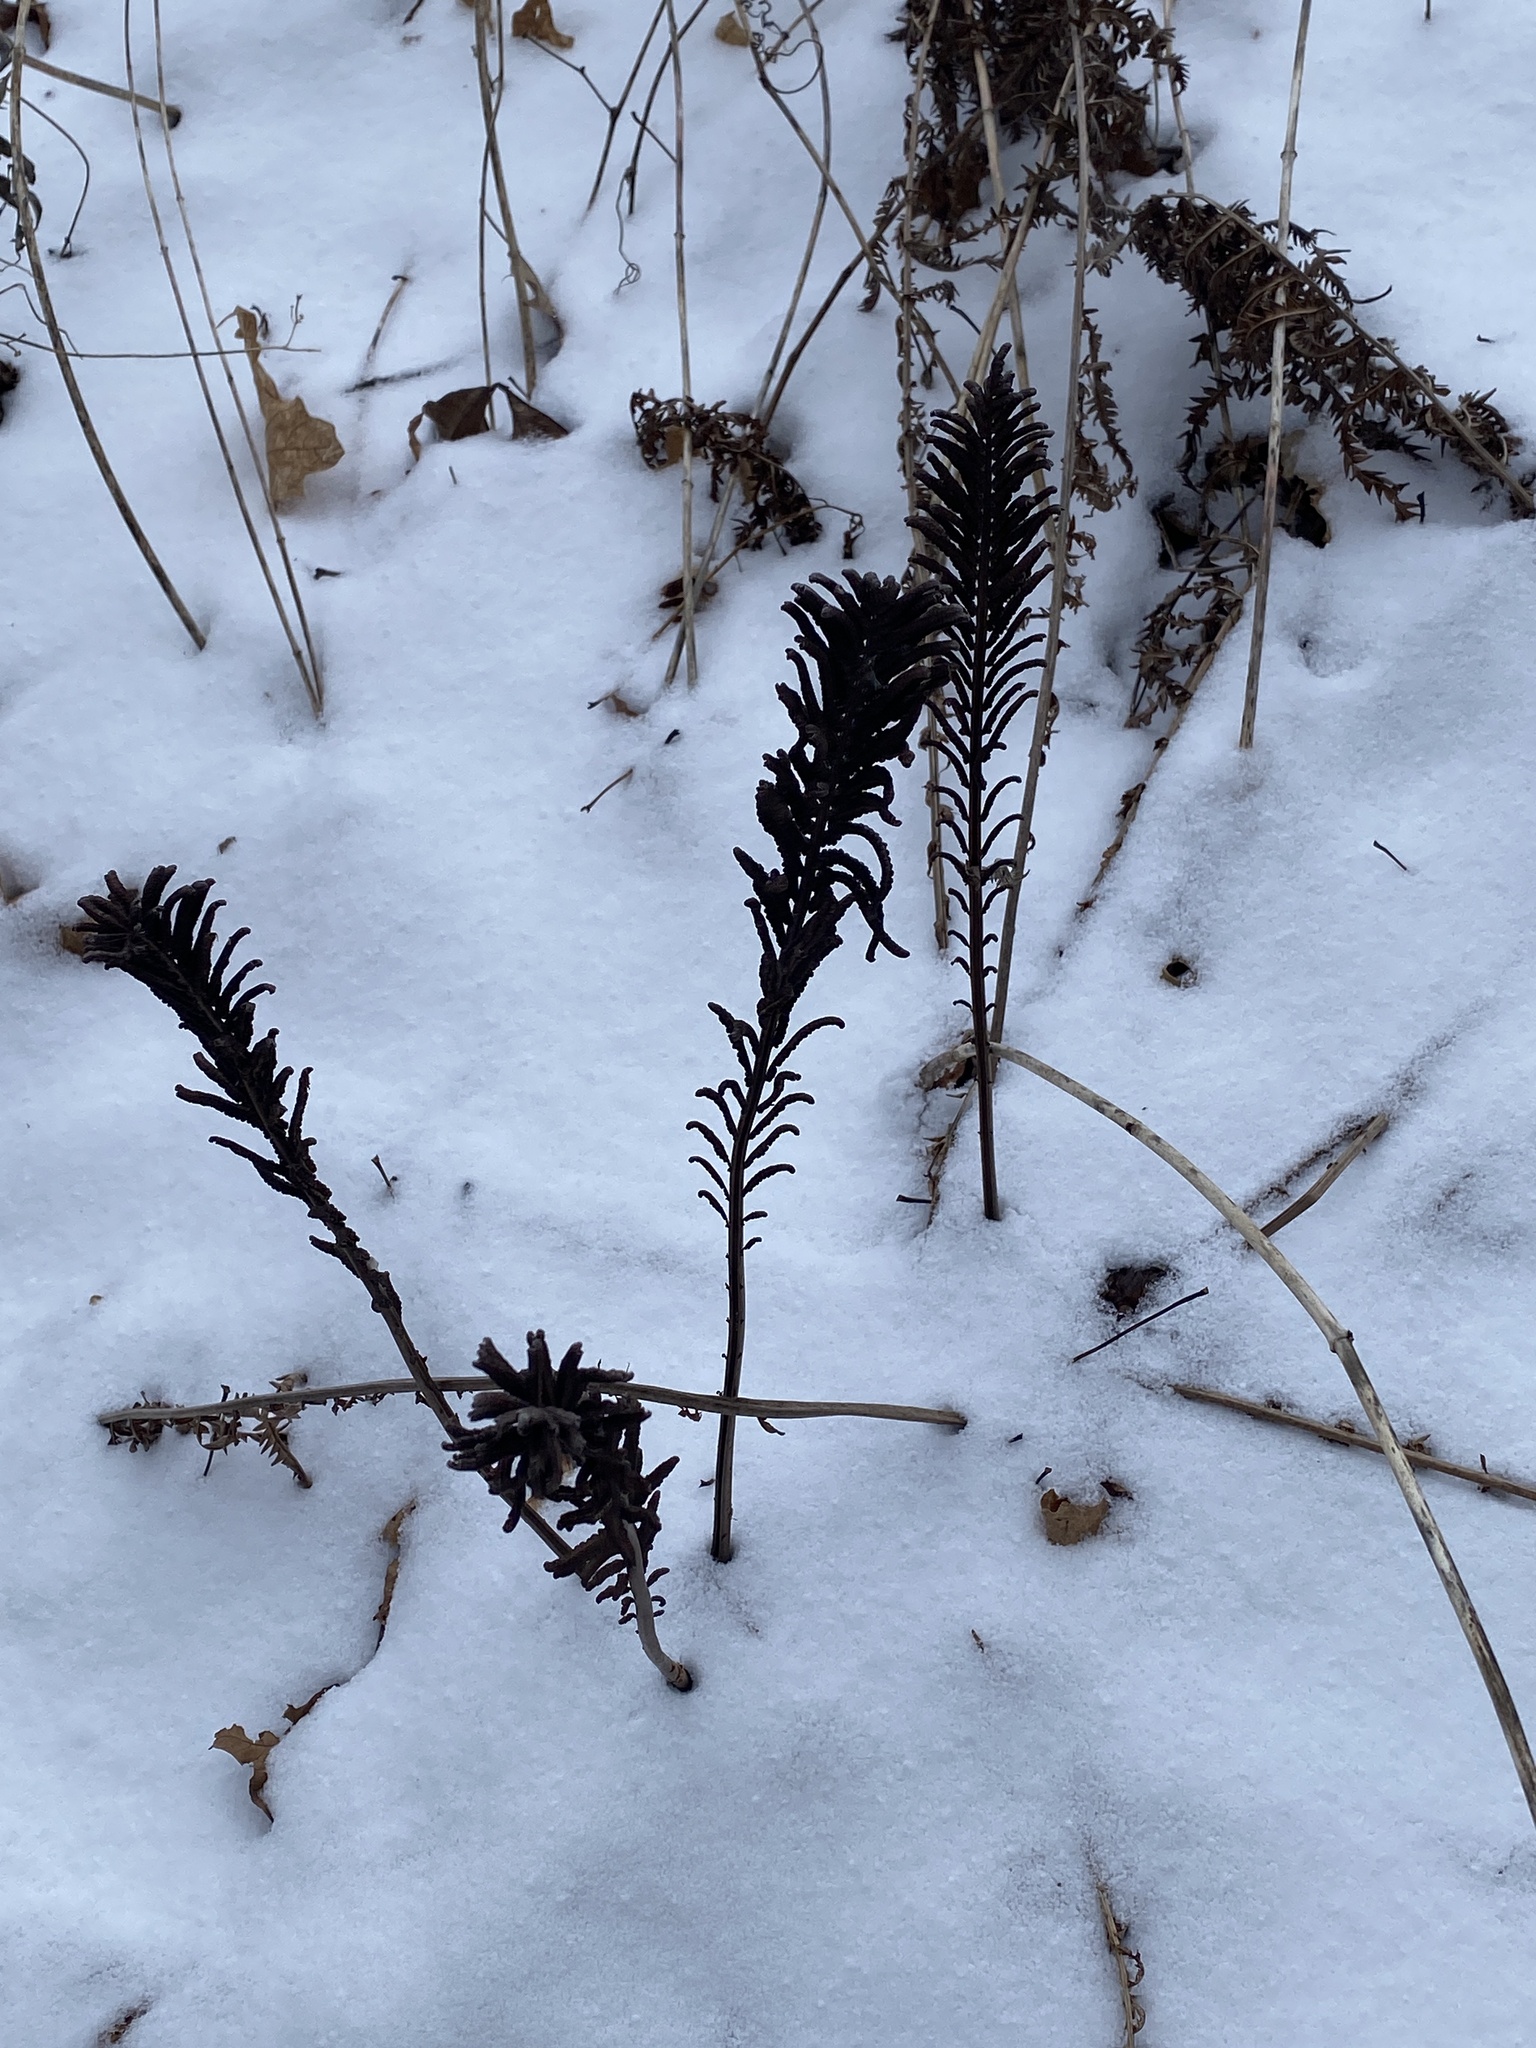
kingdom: Plantae
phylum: Tracheophyta
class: Polypodiopsida
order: Polypodiales
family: Onocleaceae
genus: Matteuccia
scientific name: Matteuccia struthiopteris
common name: Ostrich fern
